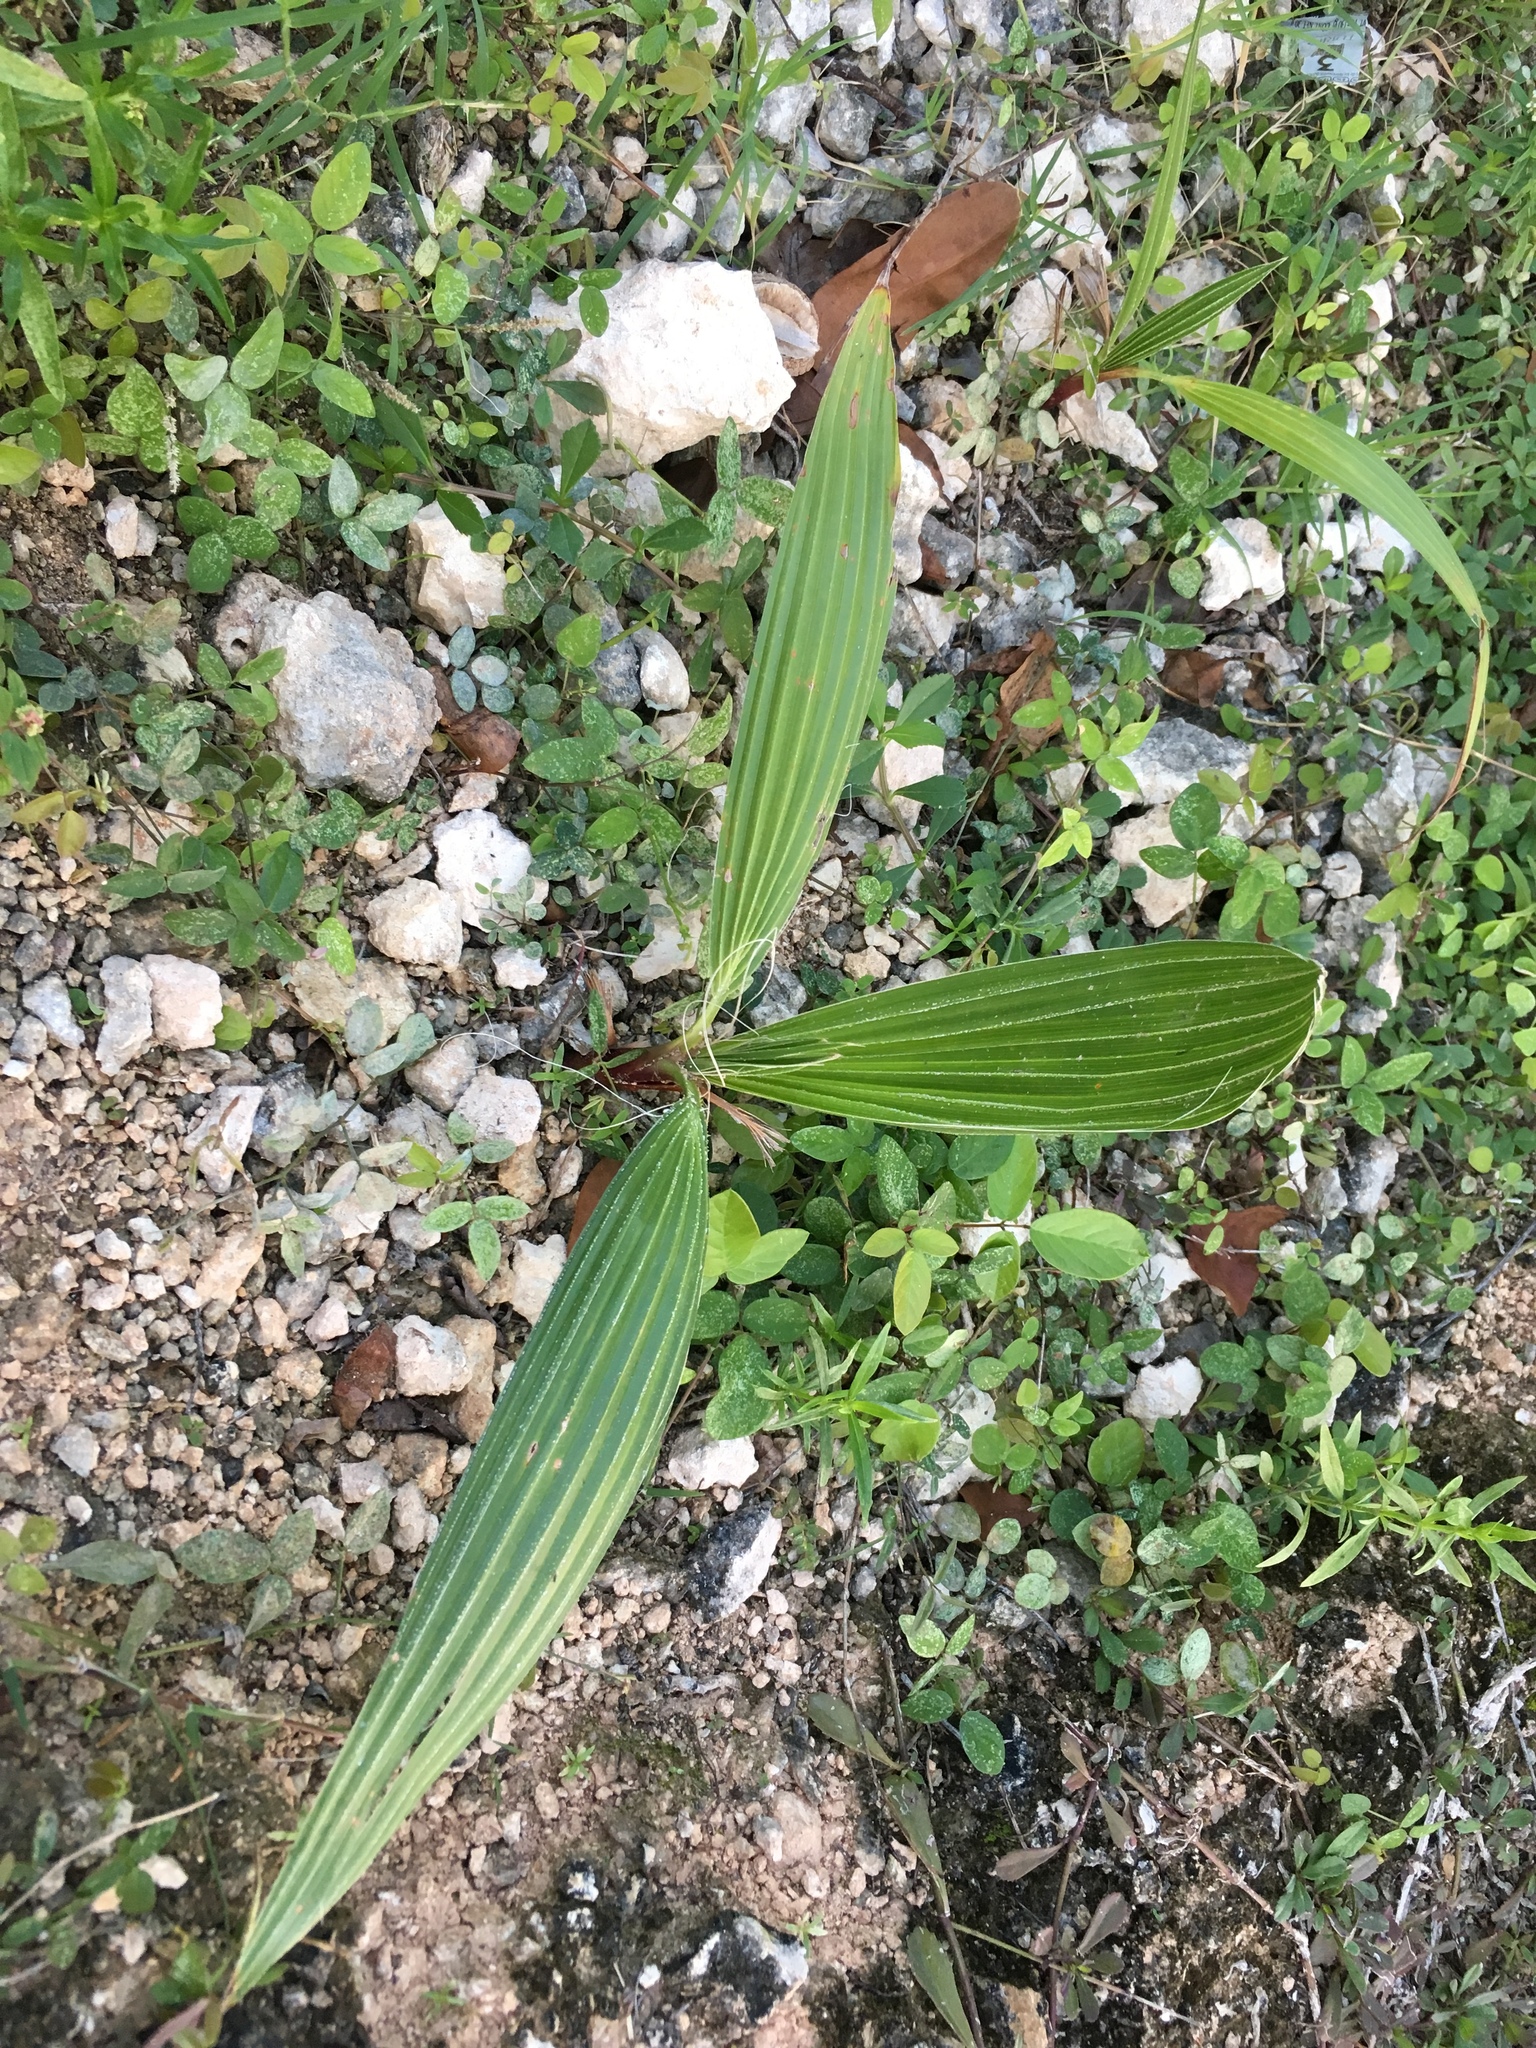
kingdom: Plantae
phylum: Tracheophyta
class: Liliopsida
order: Arecales
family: Arecaceae
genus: Cocos
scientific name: Cocos nucifera
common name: Coconut palm
